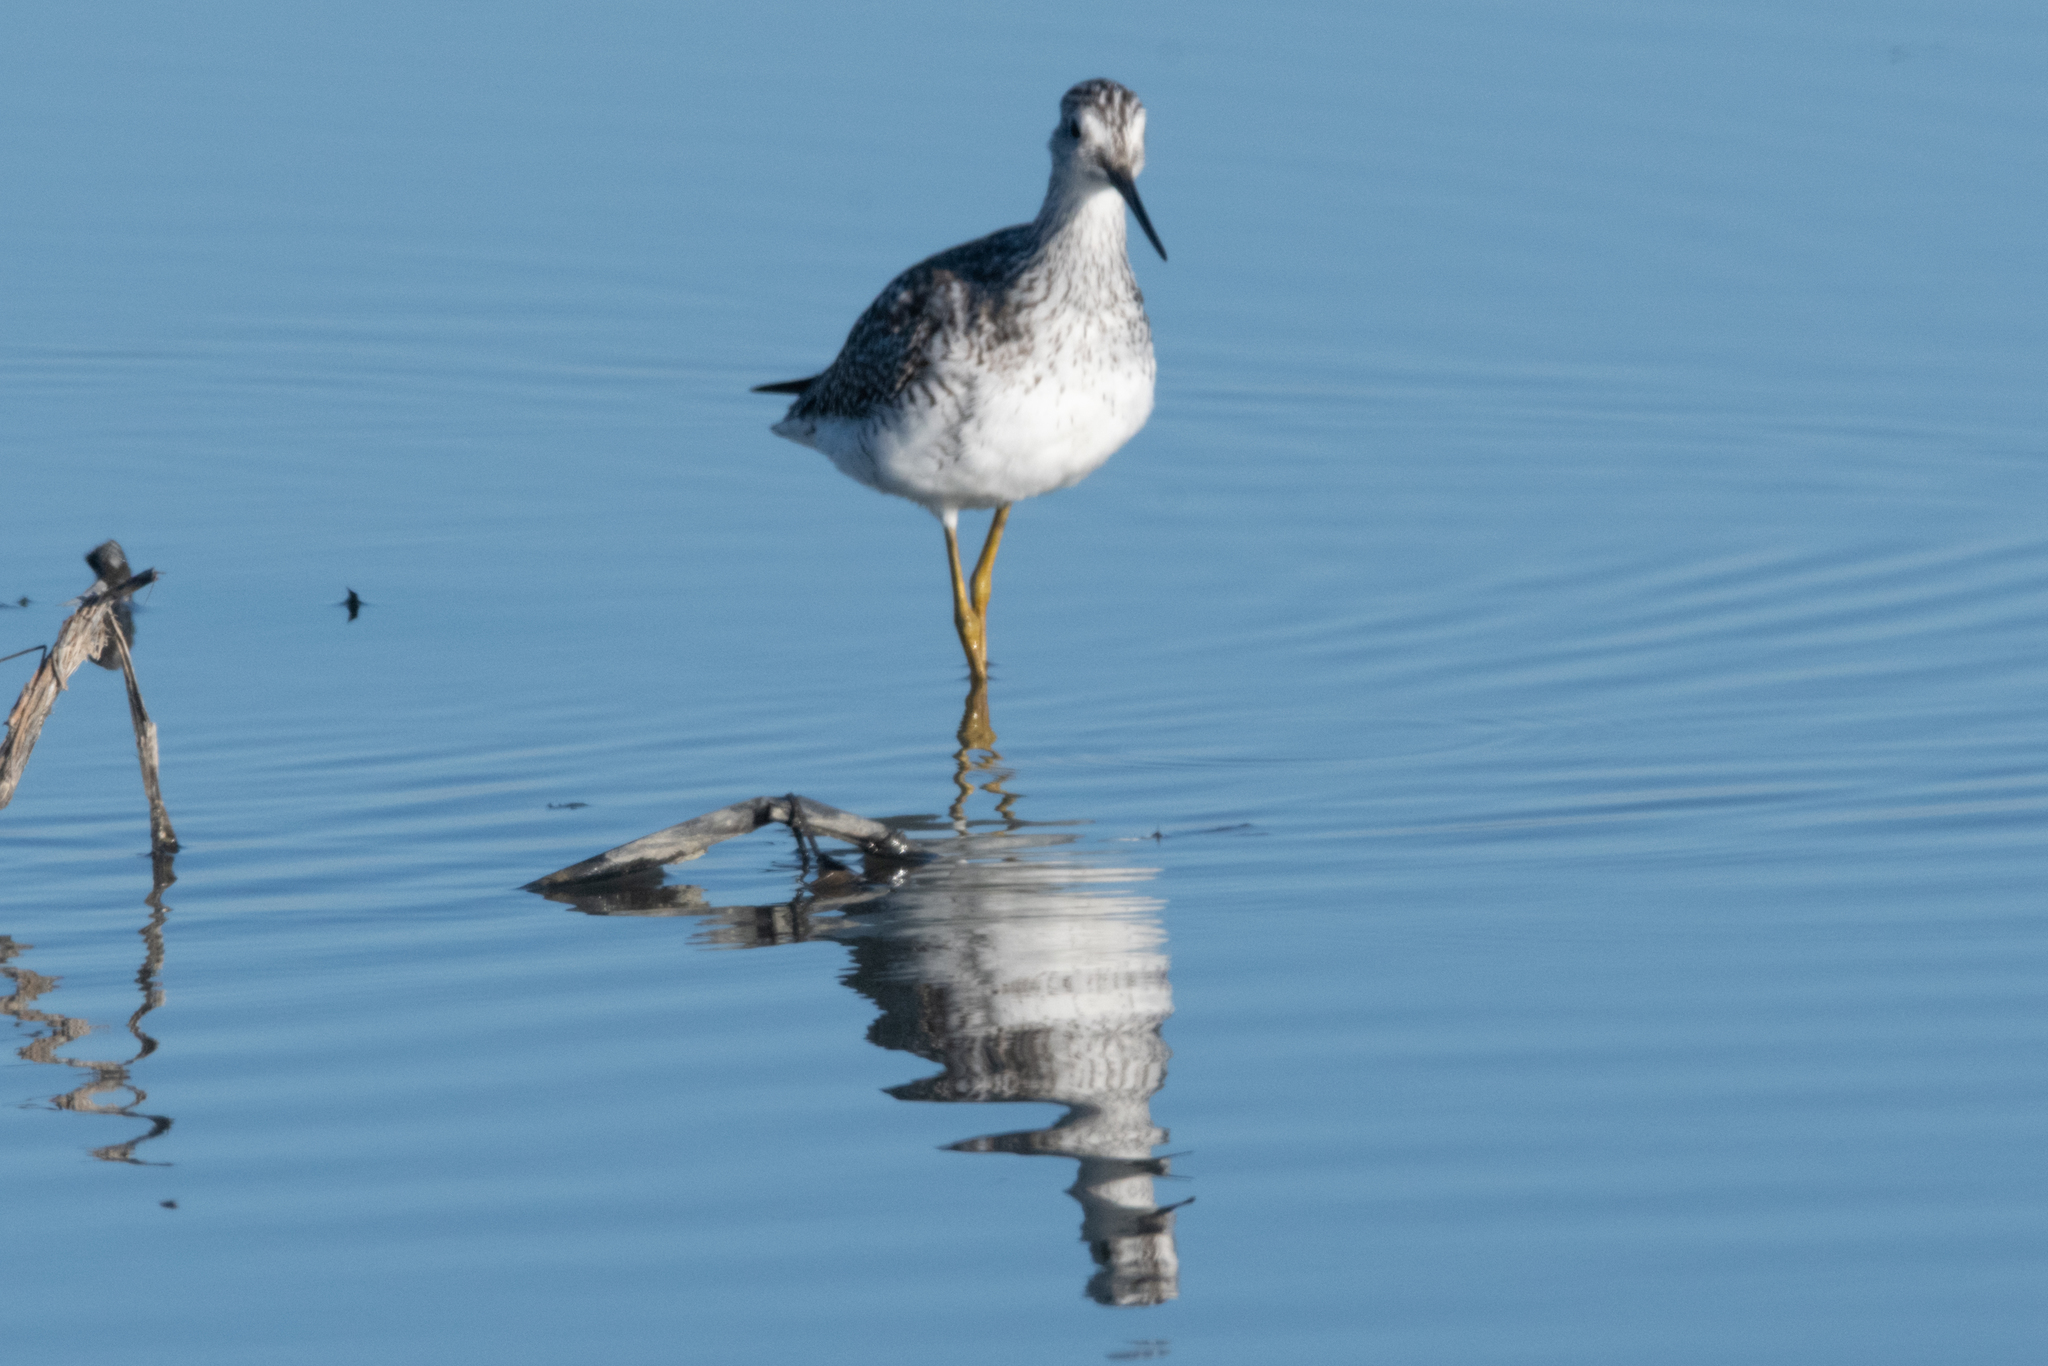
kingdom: Animalia
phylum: Chordata
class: Aves
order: Charadriiformes
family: Scolopacidae
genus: Tringa
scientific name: Tringa melanoleuca
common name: Greater yellowlegs
